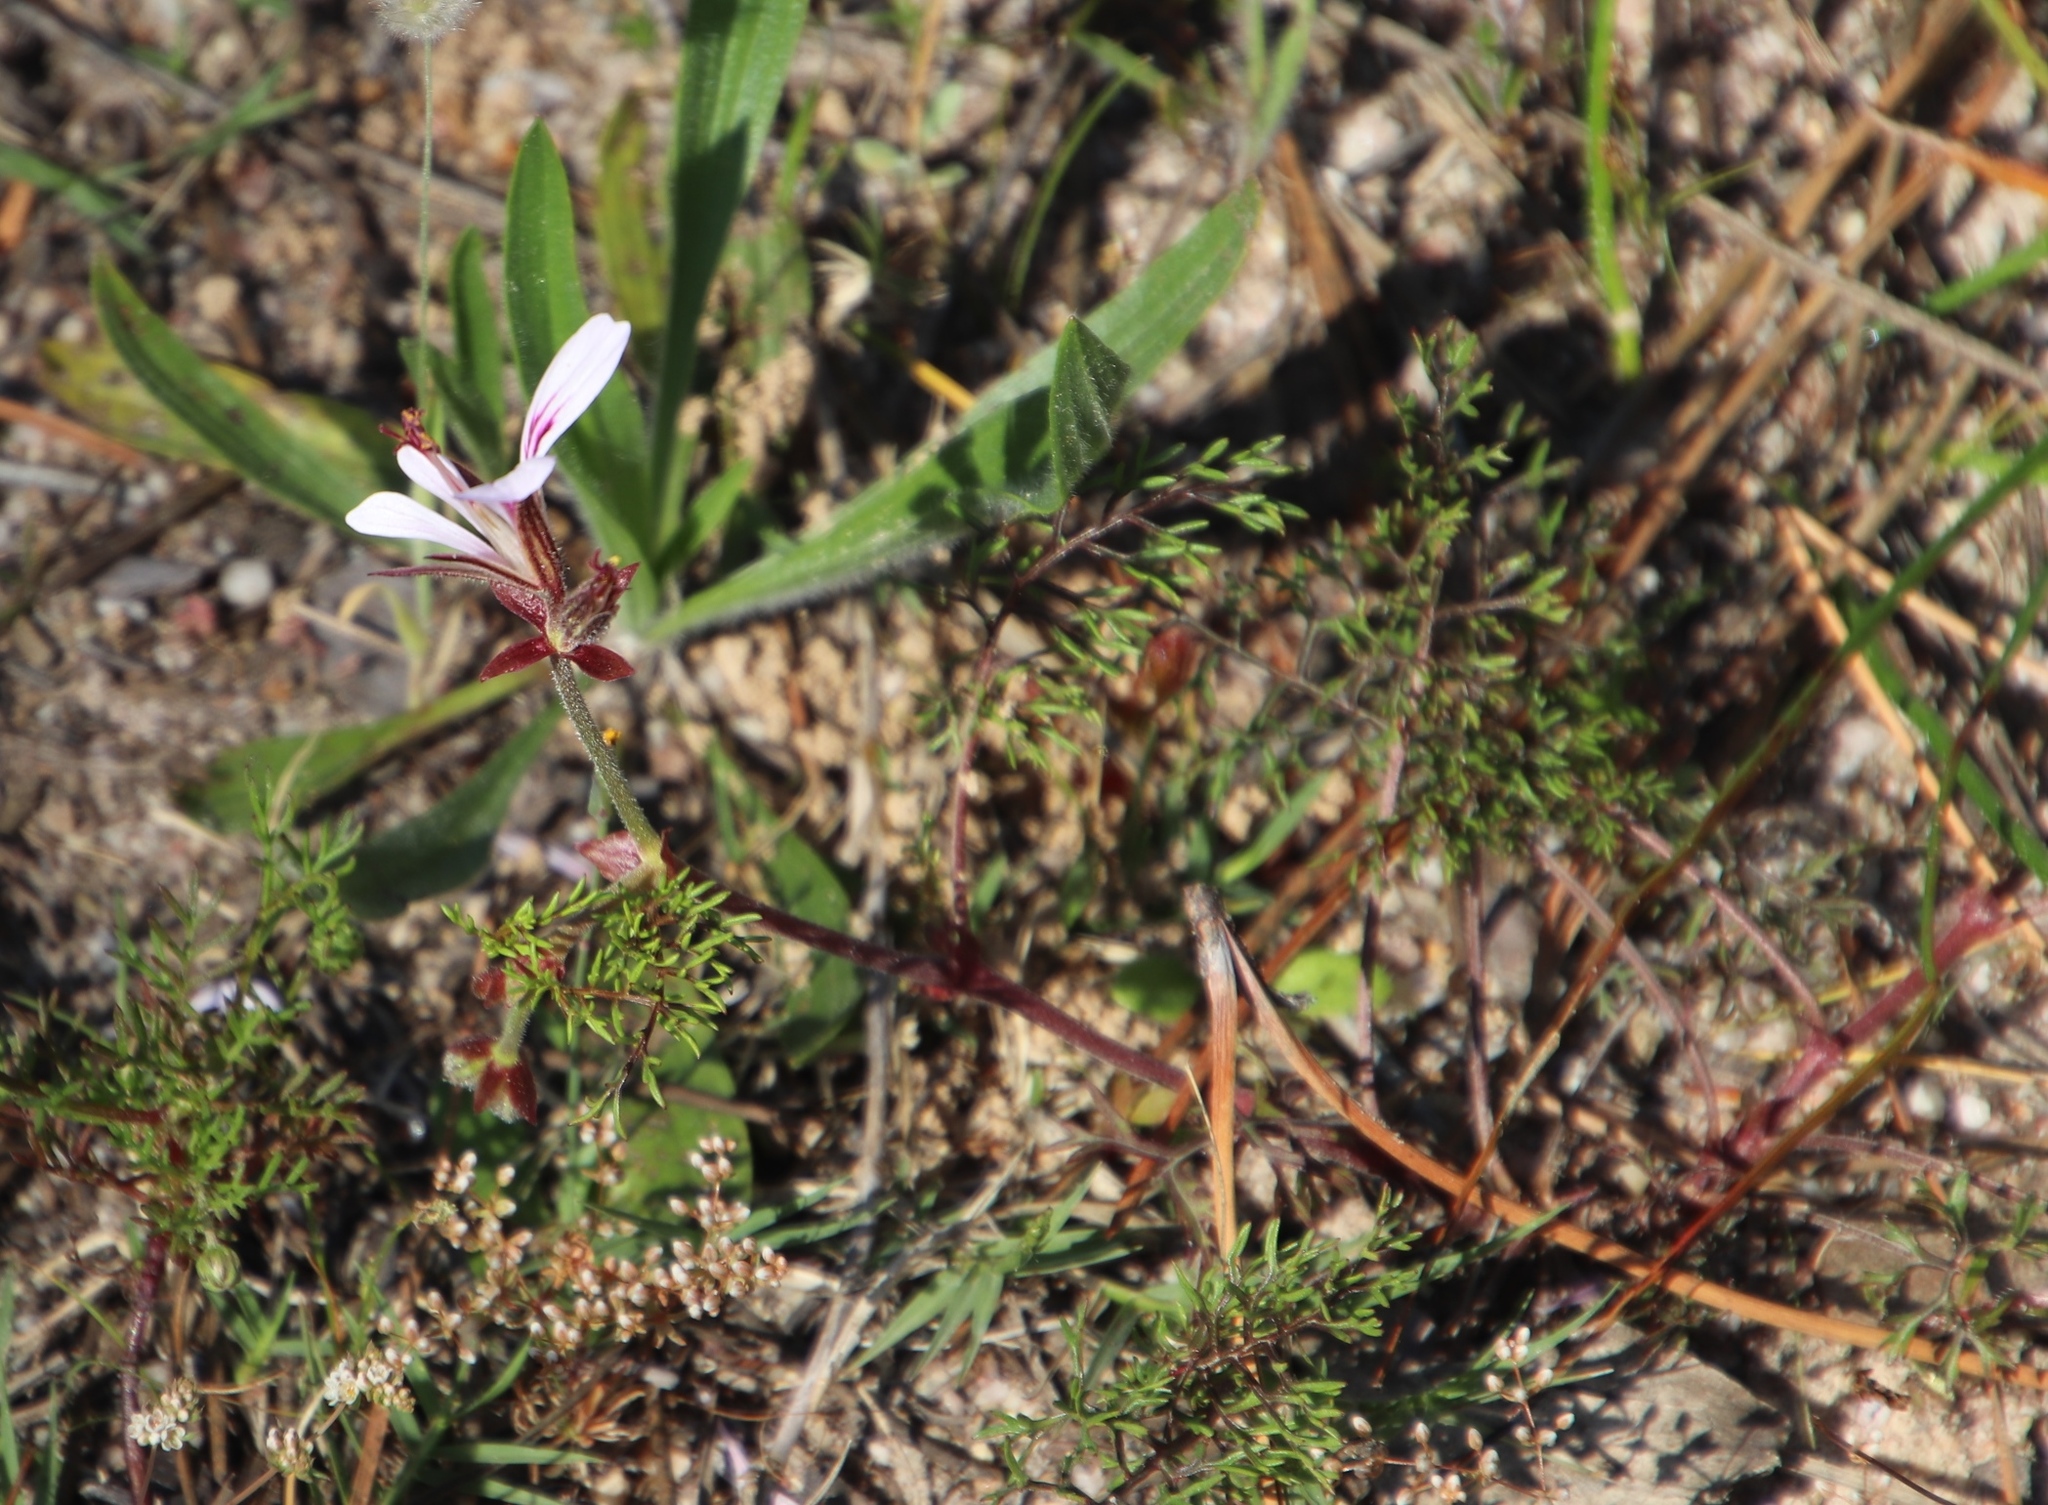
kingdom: Plantae
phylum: Tracheophyta
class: Magnoliopsida
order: Geraniales
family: Geraniaceae
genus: Pelargonium
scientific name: Pelargonium myrrhifolium
